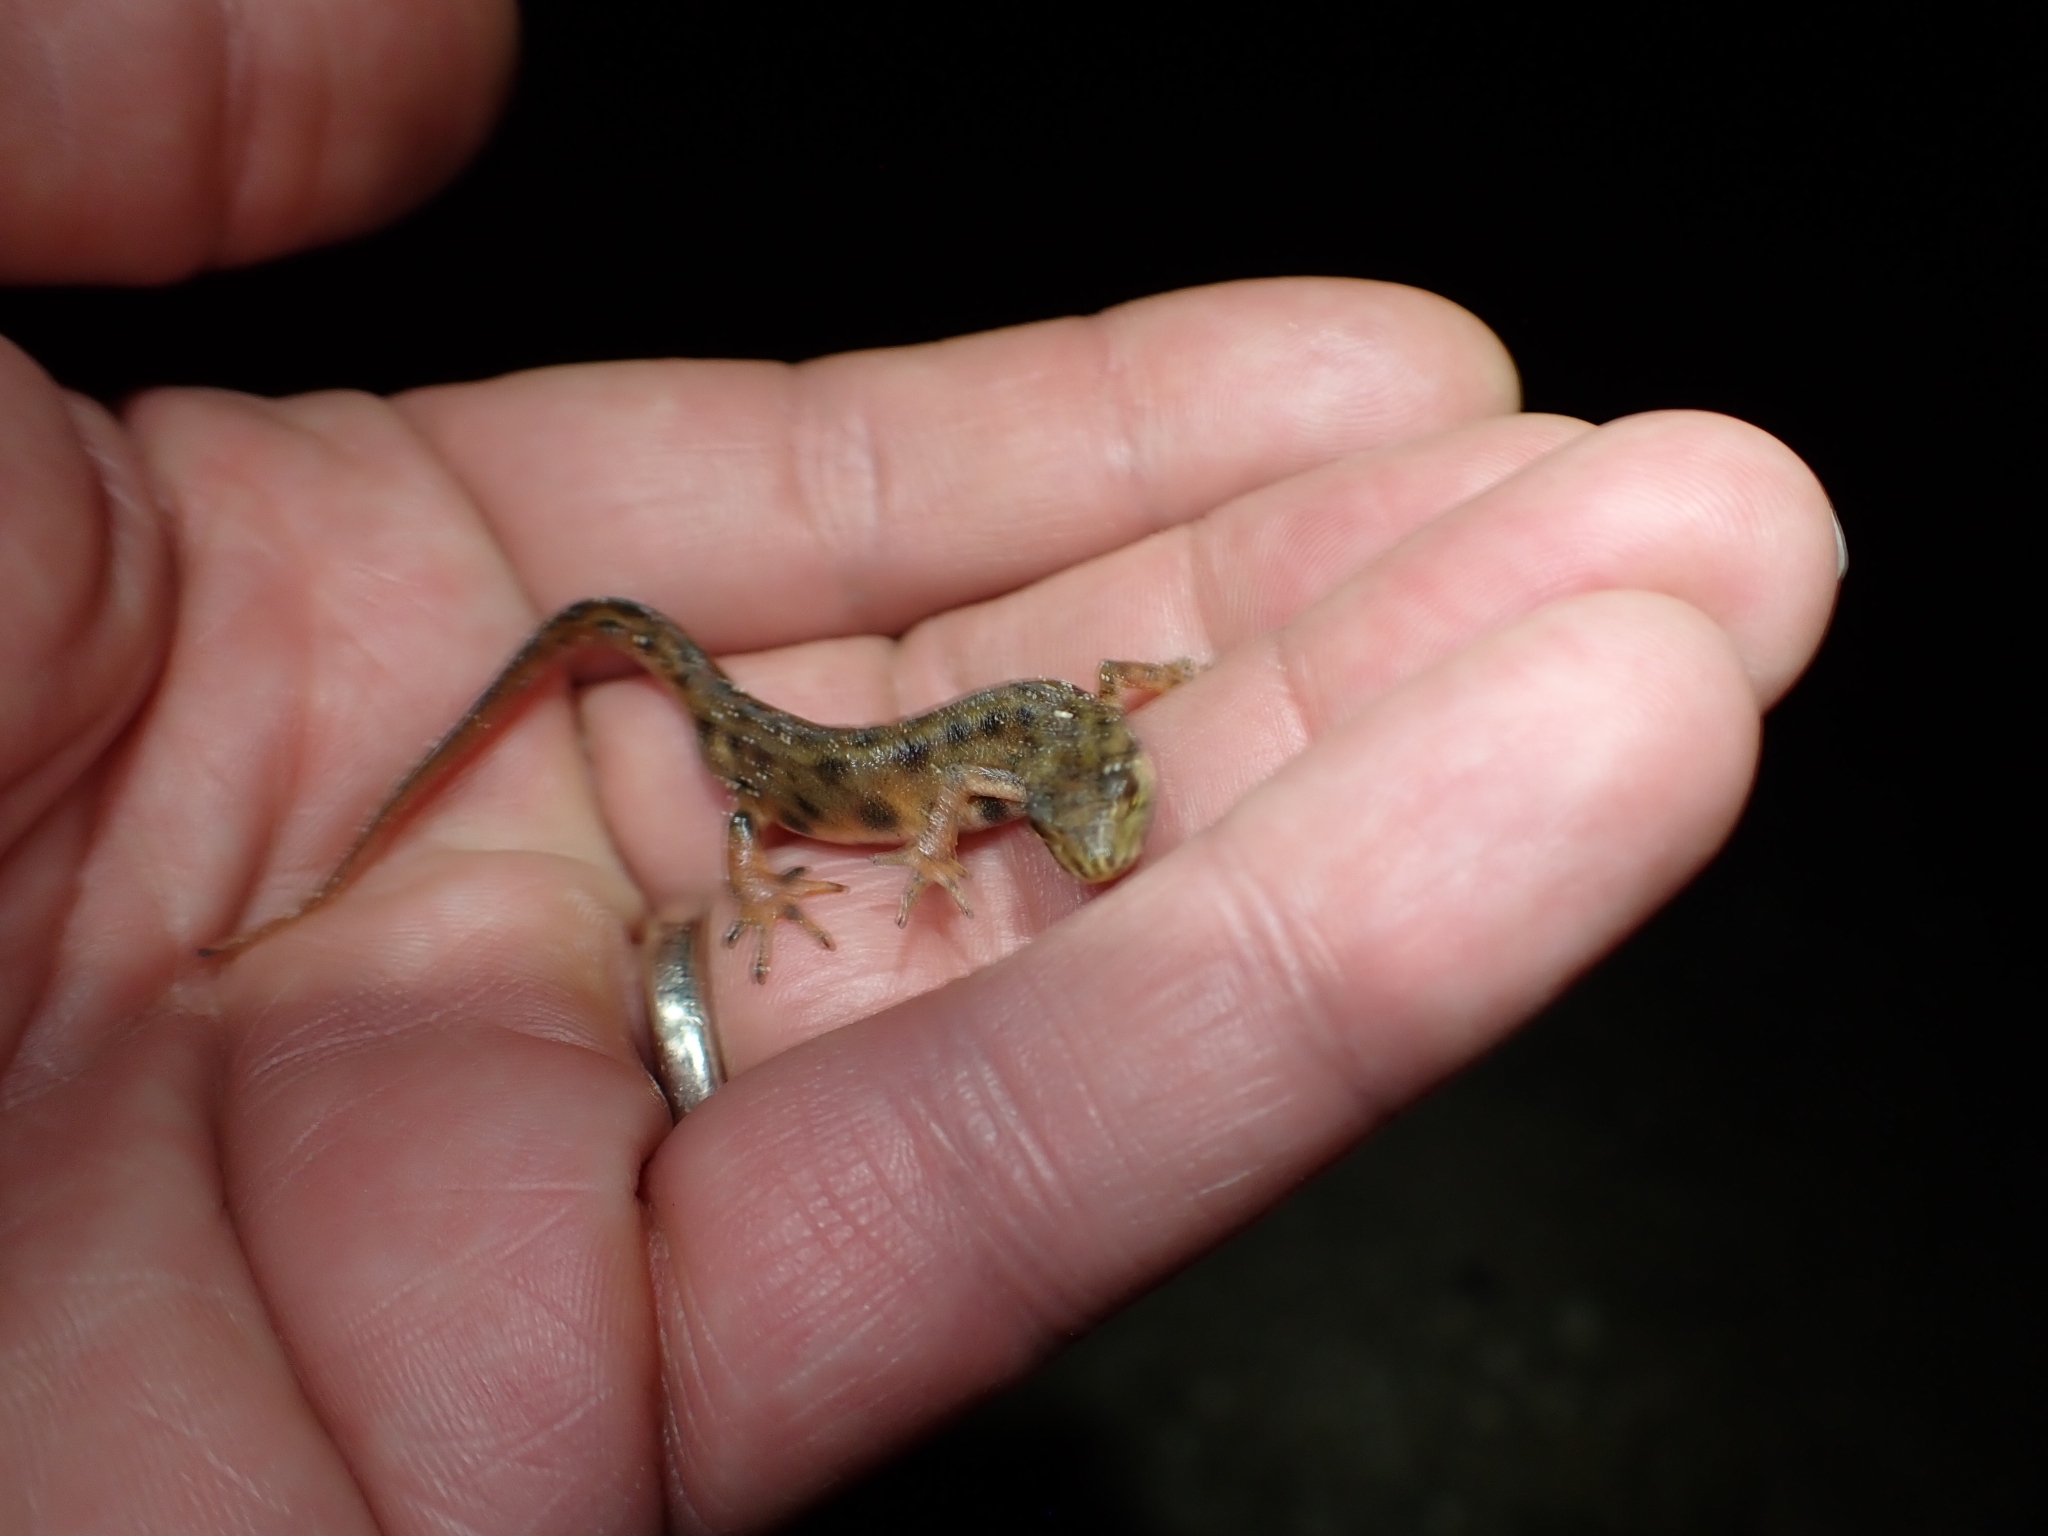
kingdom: Animalia
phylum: Chordata
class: Amphibia
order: Caudata
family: Salamandridae
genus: Lissotriton
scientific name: Lissotriton vulgaris
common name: Smooth newt
